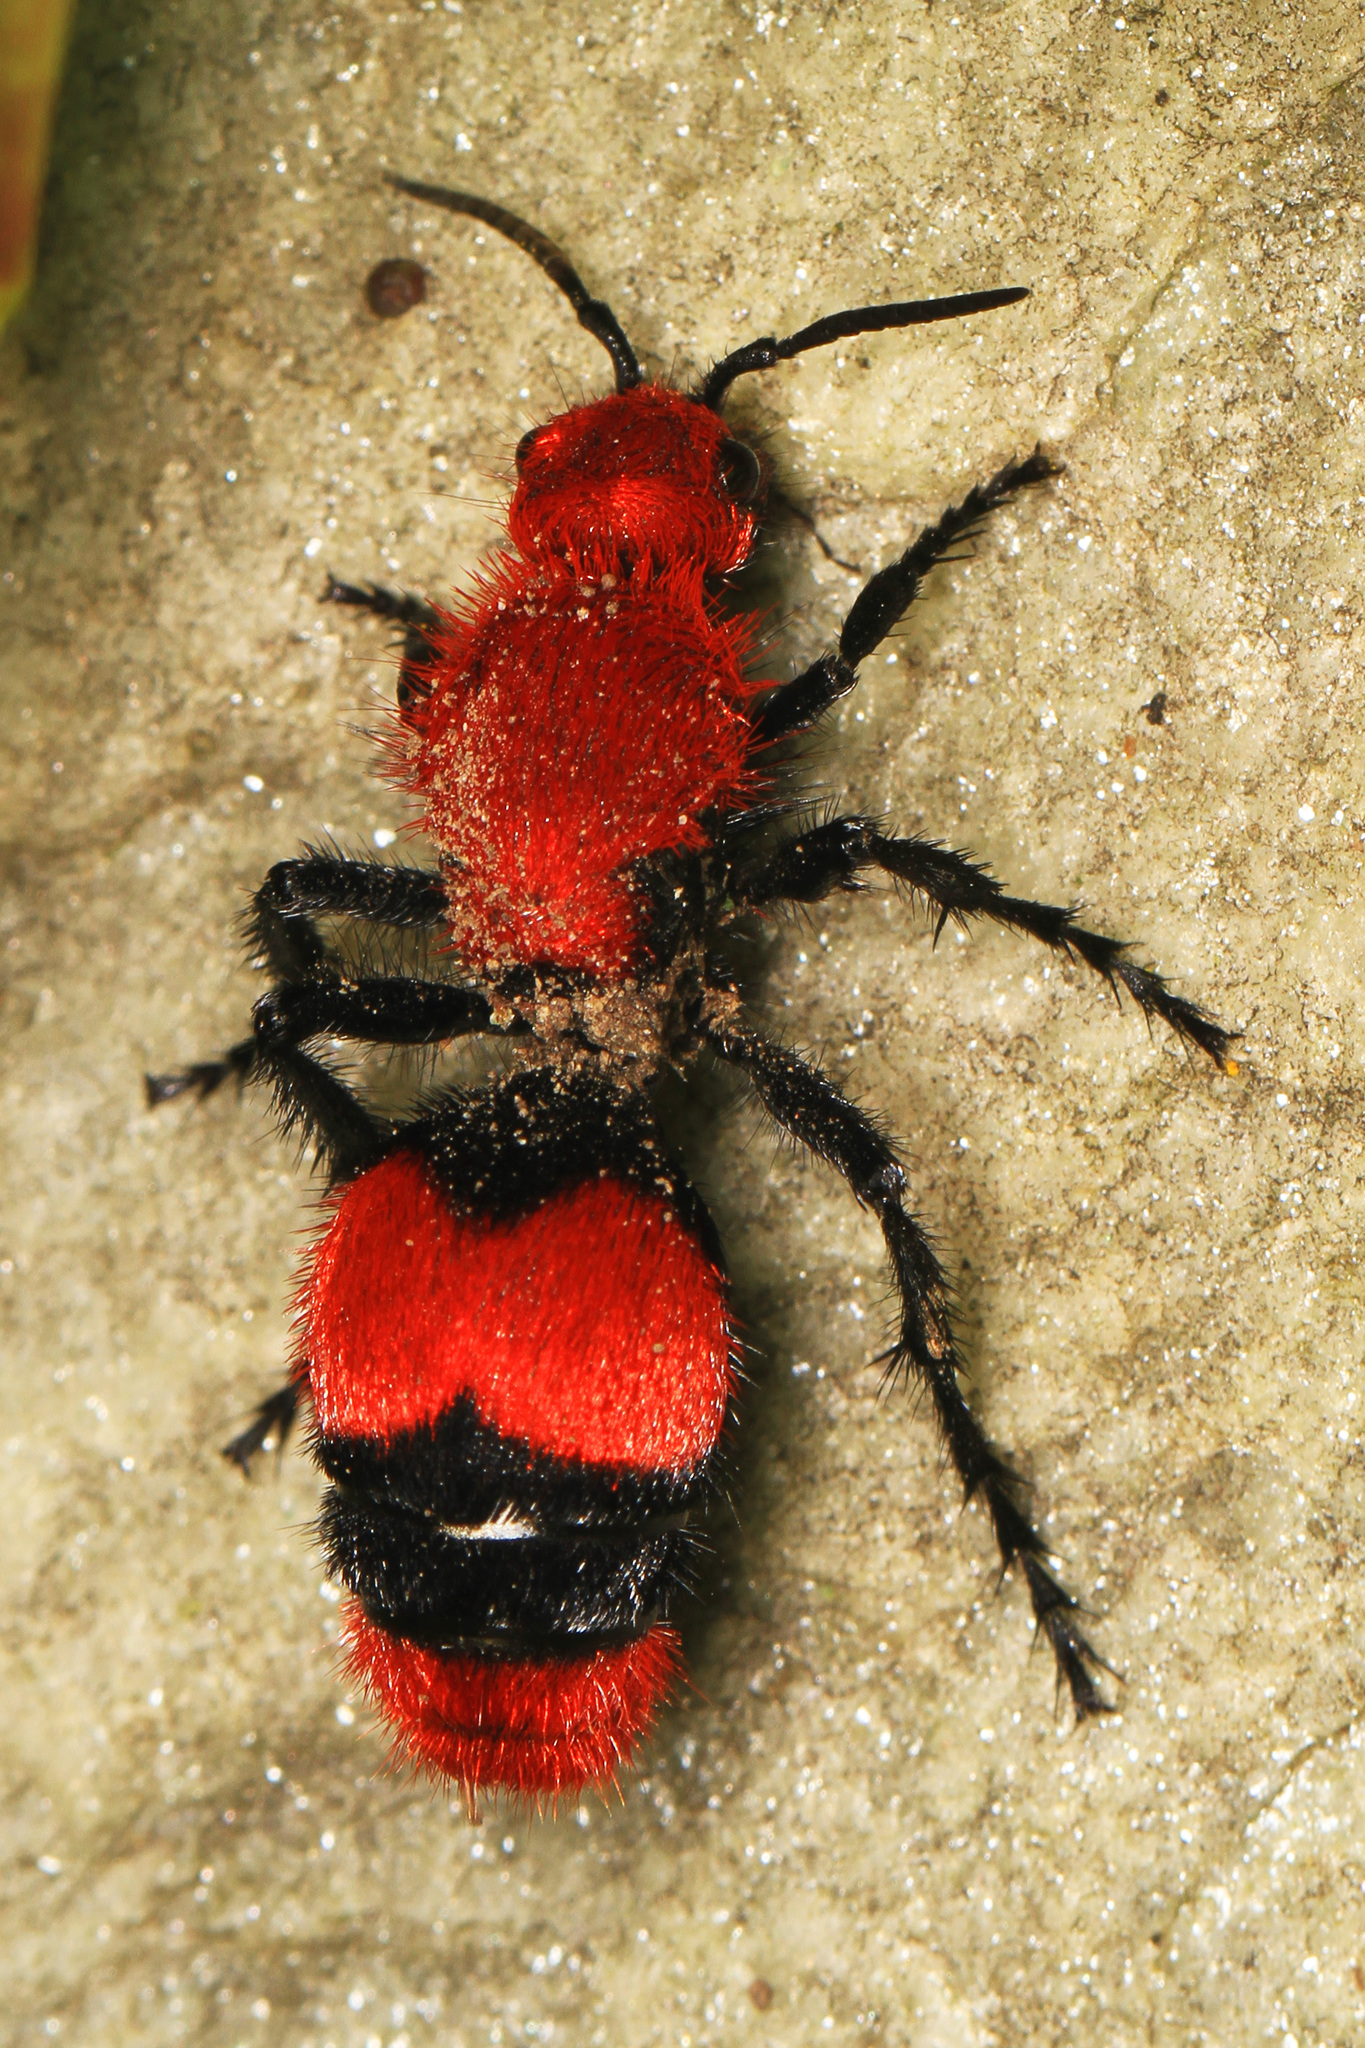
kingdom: Animalia
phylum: Arthropoda
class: Insecta
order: Hymenoptera
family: Mutillidae
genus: Dasymutilla
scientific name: Dasymutilla occidentalis
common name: Common eastern velvet ant
